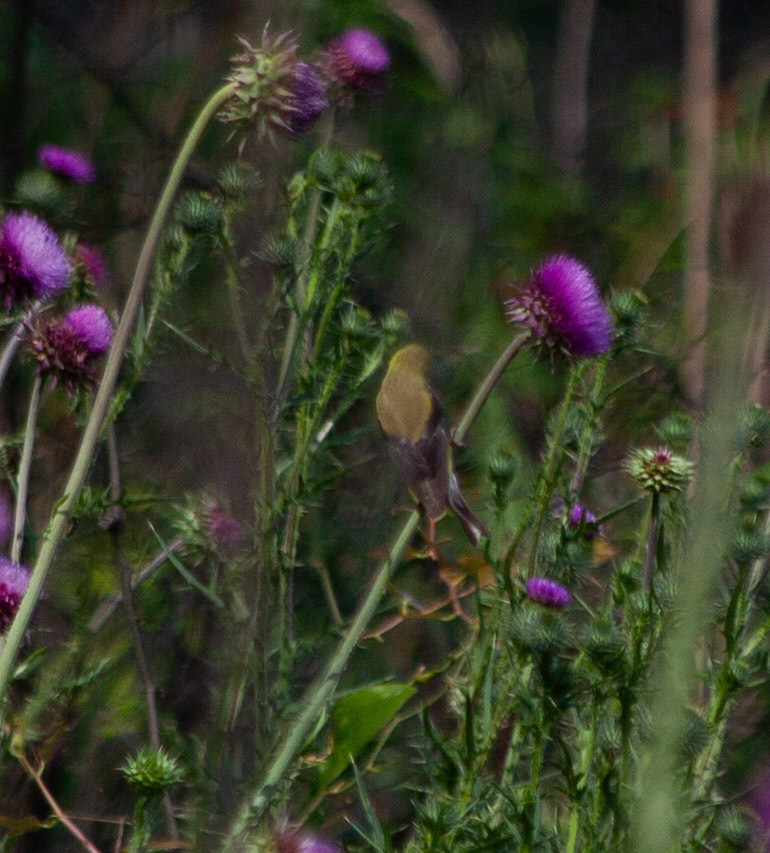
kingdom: Animalia
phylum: Chordata
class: Aves
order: Passeriformes
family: Fringillidae
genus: Spinus
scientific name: Spinus tristis
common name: American goldfinch
